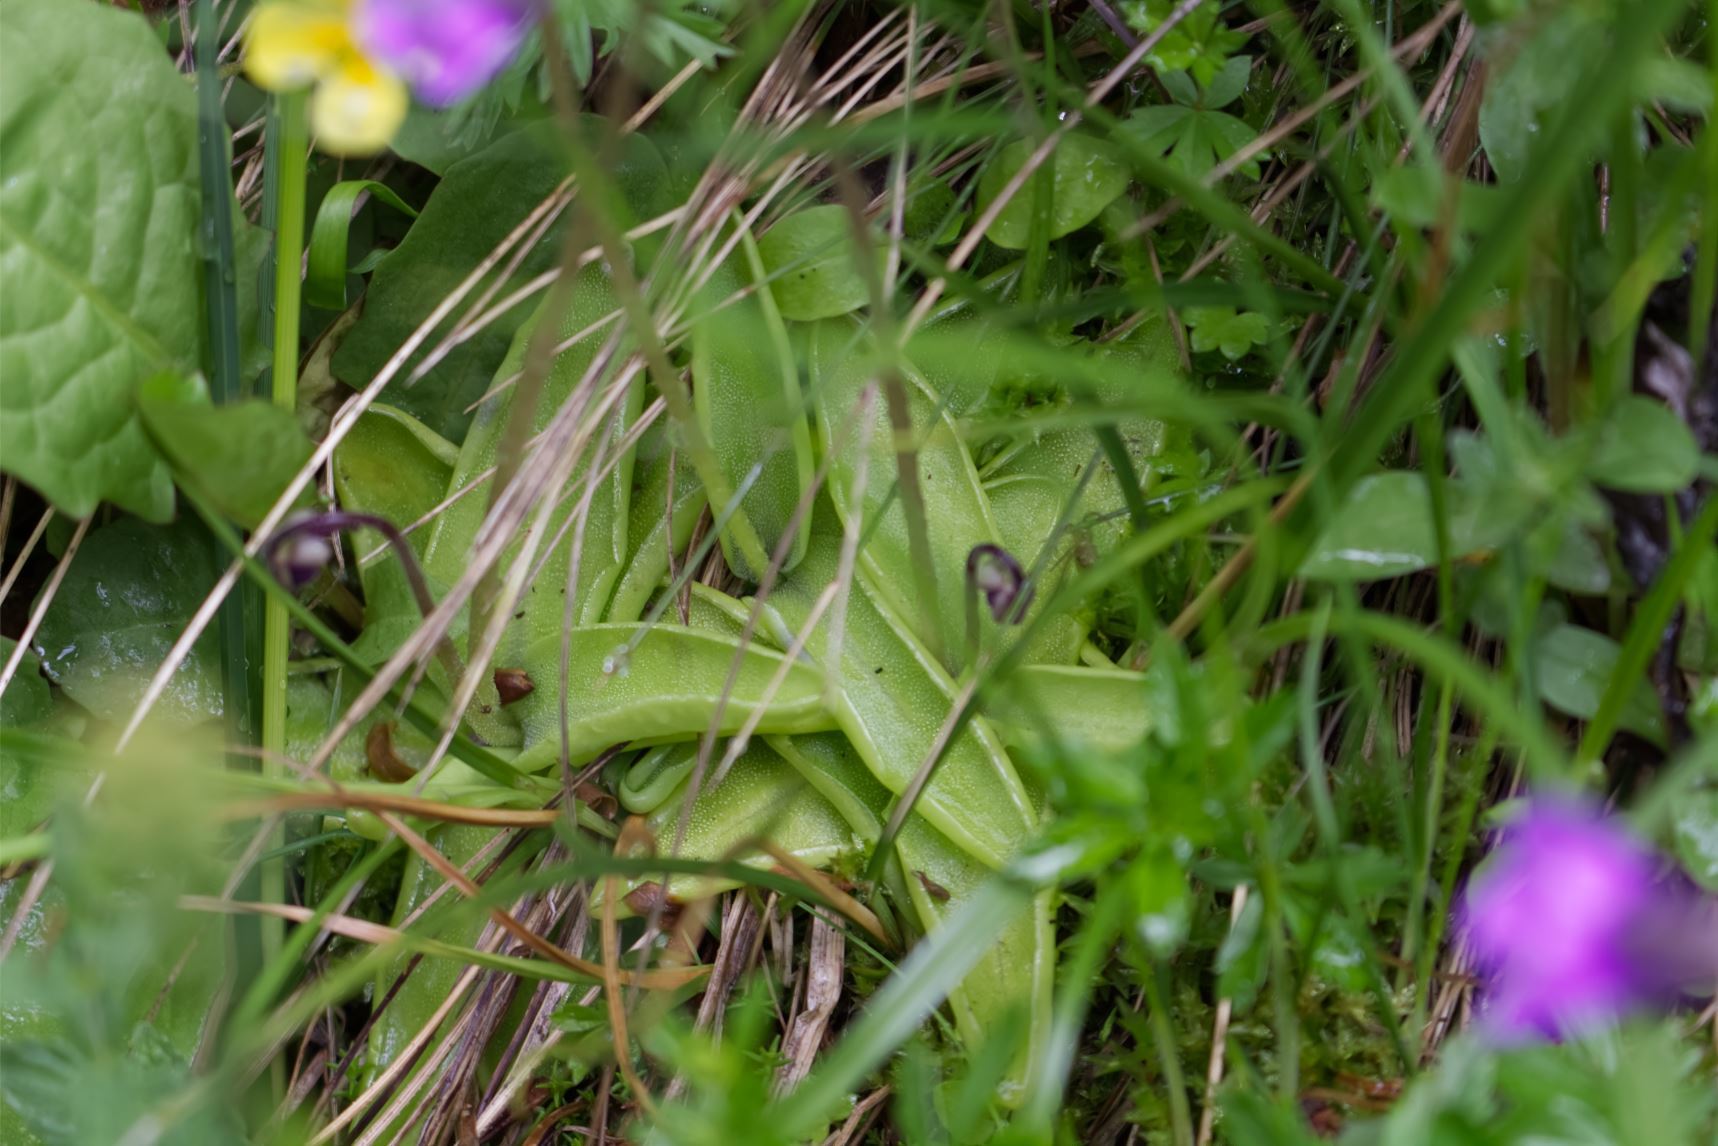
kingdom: Plantae
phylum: Tracheophyta
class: Magnoliopsida
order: Lamiales
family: Lentibulariaceae
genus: Pinguicula
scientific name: Pinguicula vulgaris
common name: Common butterwort
